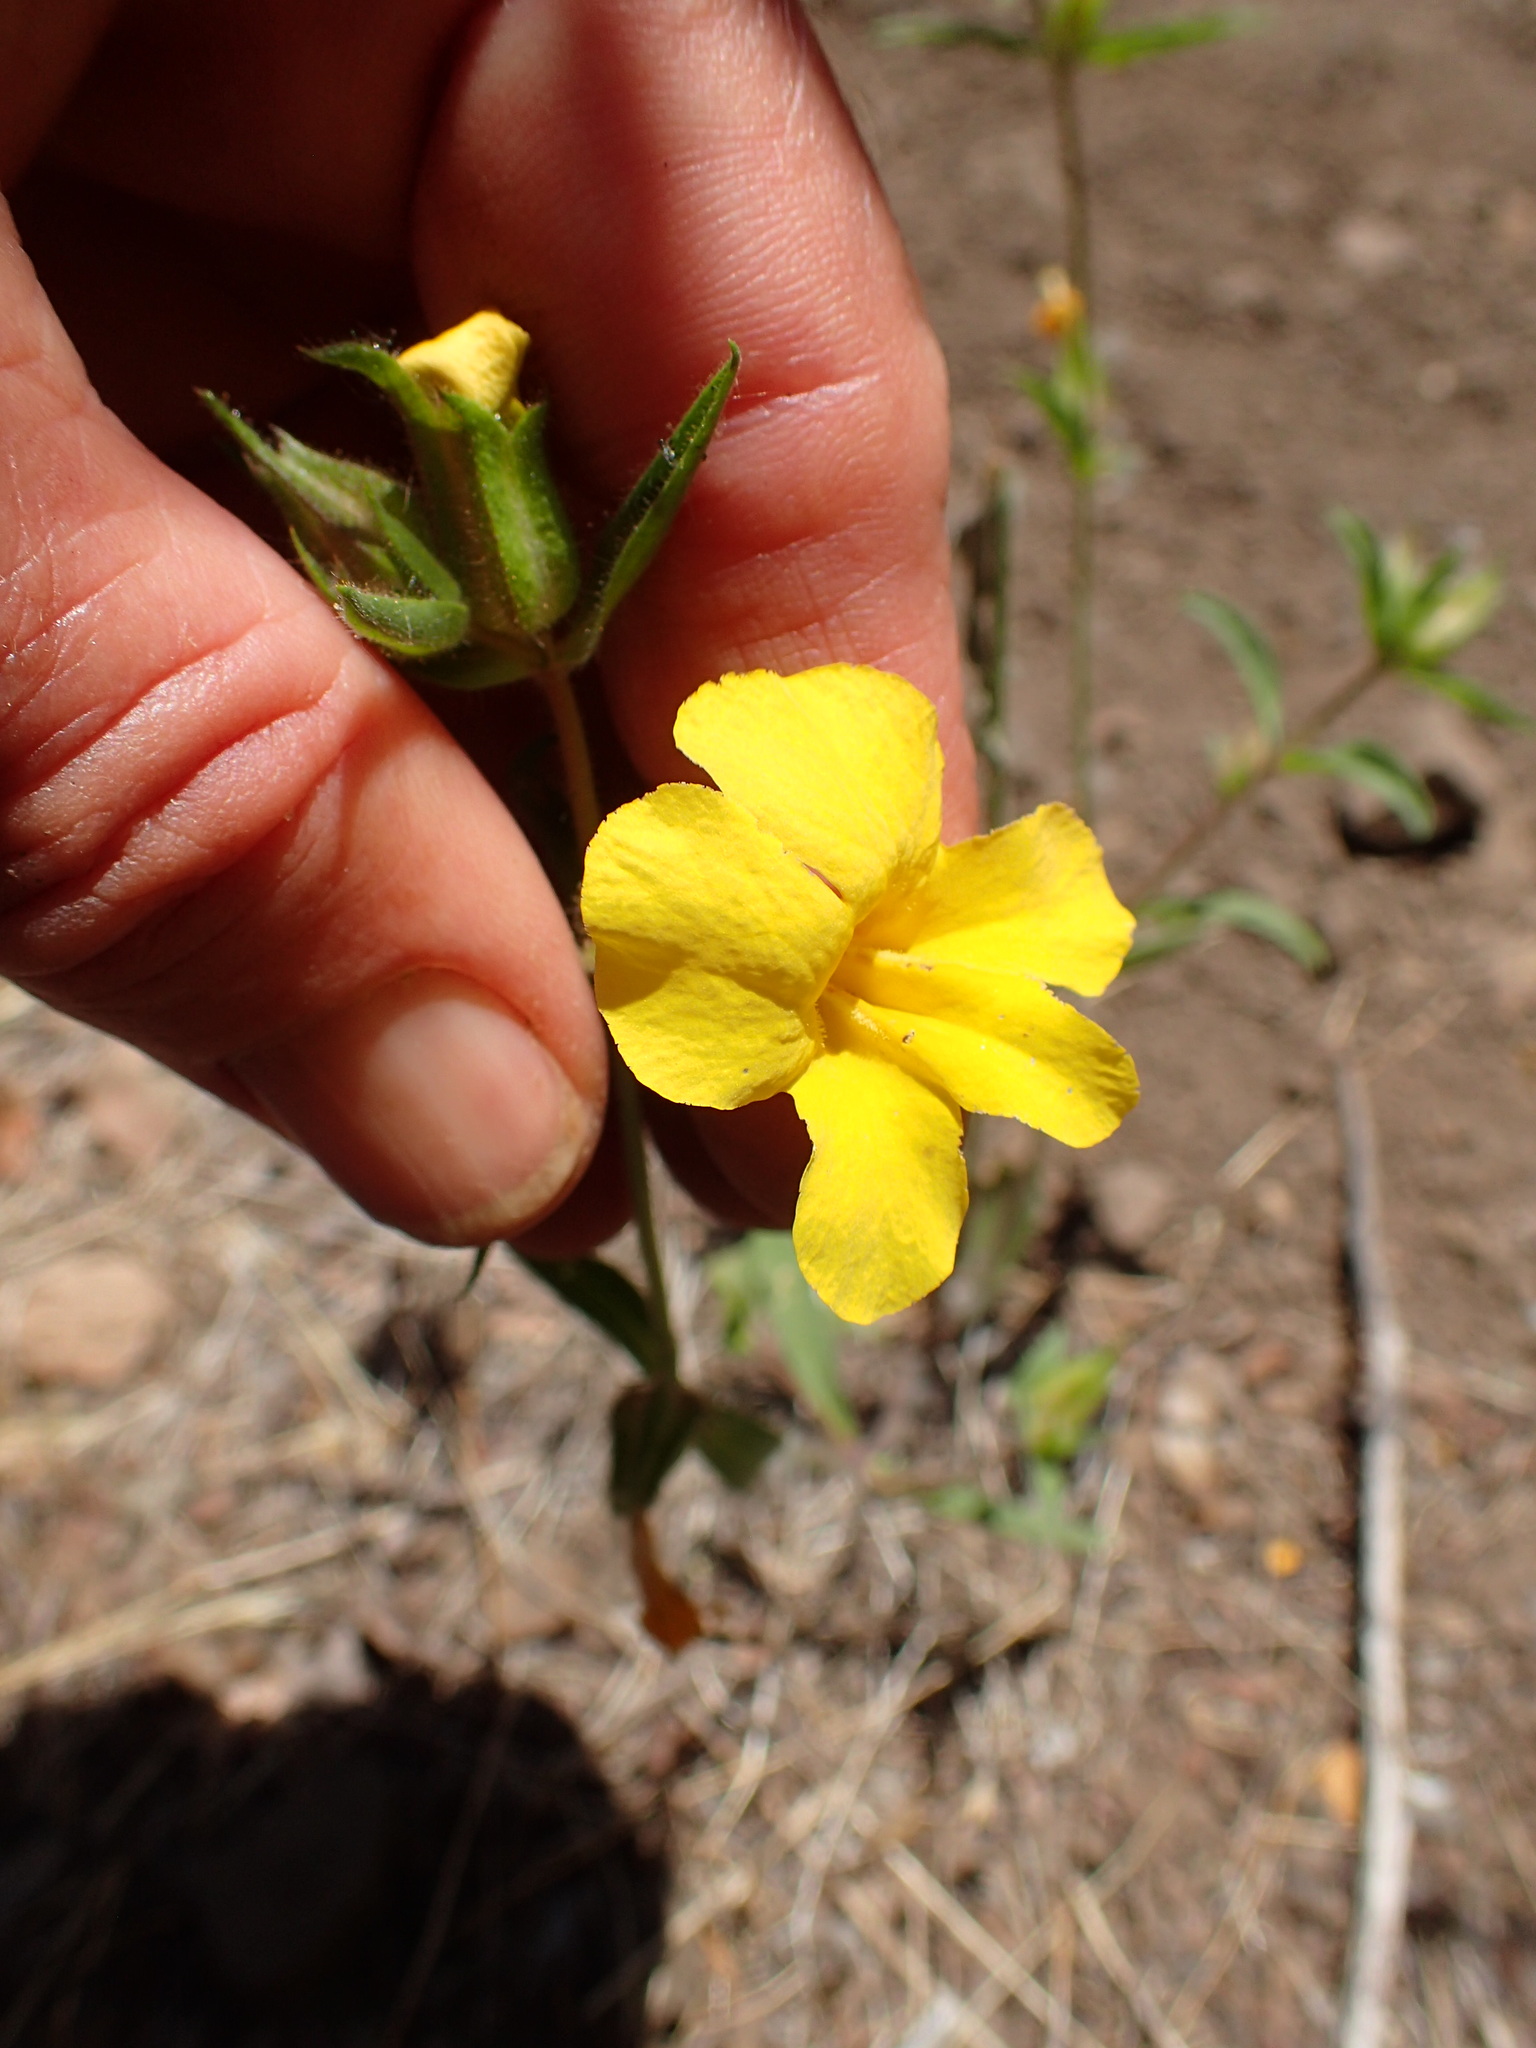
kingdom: Plantae
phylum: Tracheophyta
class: Magnoliopsida
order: Lamiales
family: Phrymaceae
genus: Diplacus
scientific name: Diplacus brevipes
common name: Wide-throat yellow monkey-flower
